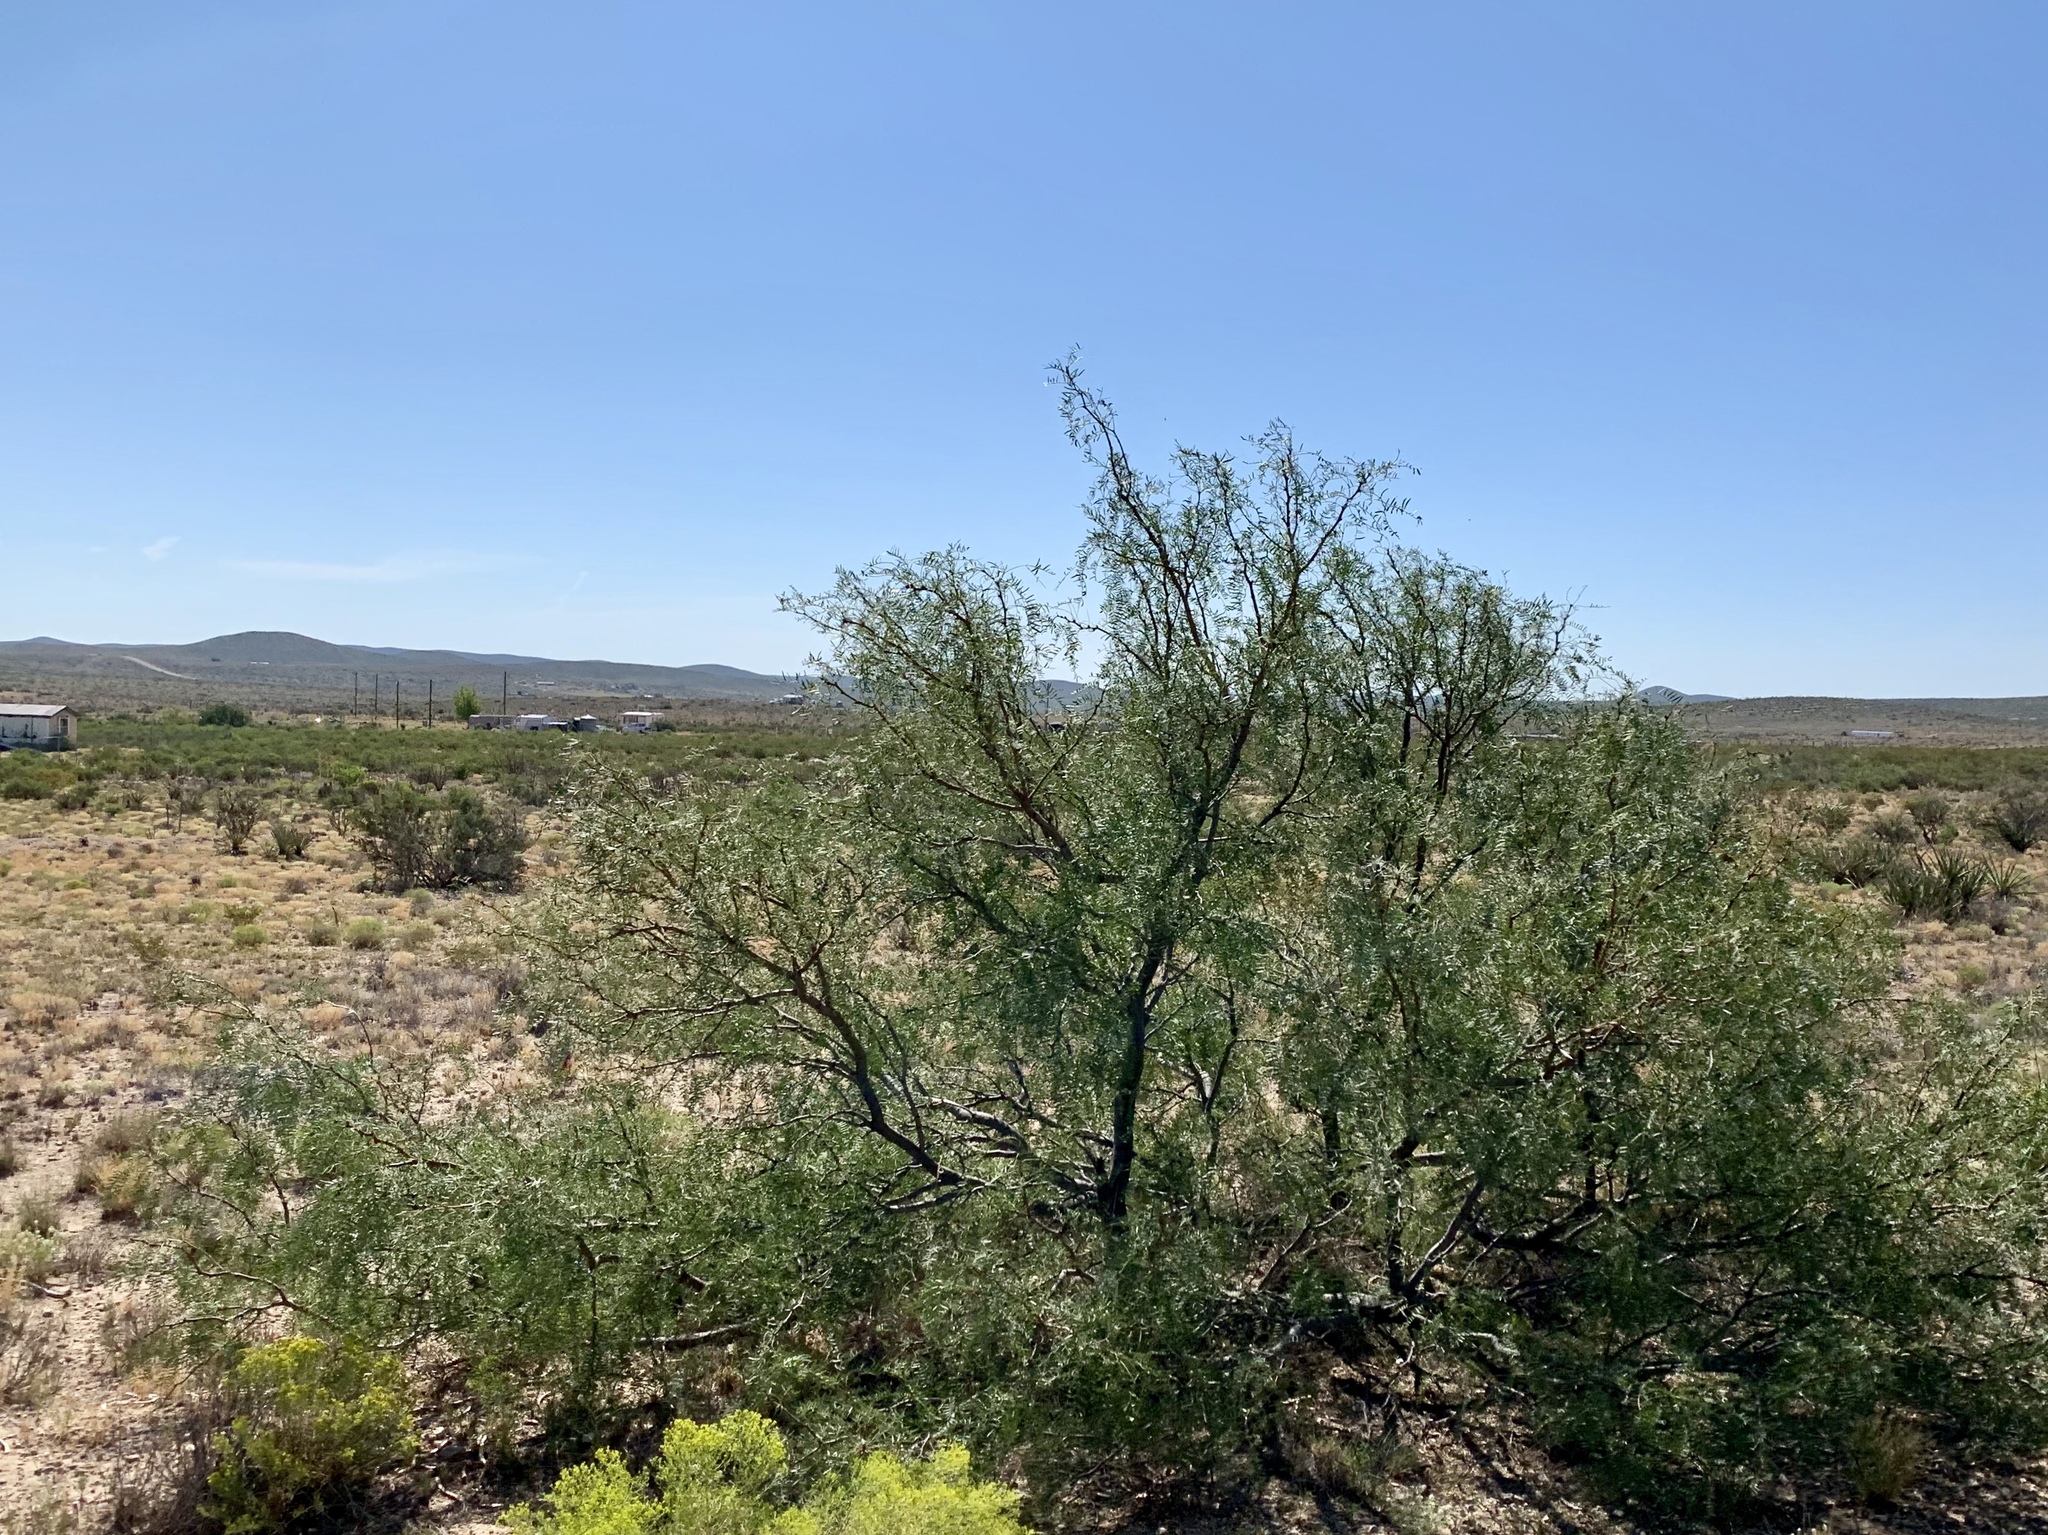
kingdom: Plantae
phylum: Tracheophyta
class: Magnoliopsida
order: Fabales
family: Fabaceae
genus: Prosopis
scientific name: Prosopis glandulosa
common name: Honey mesquite
